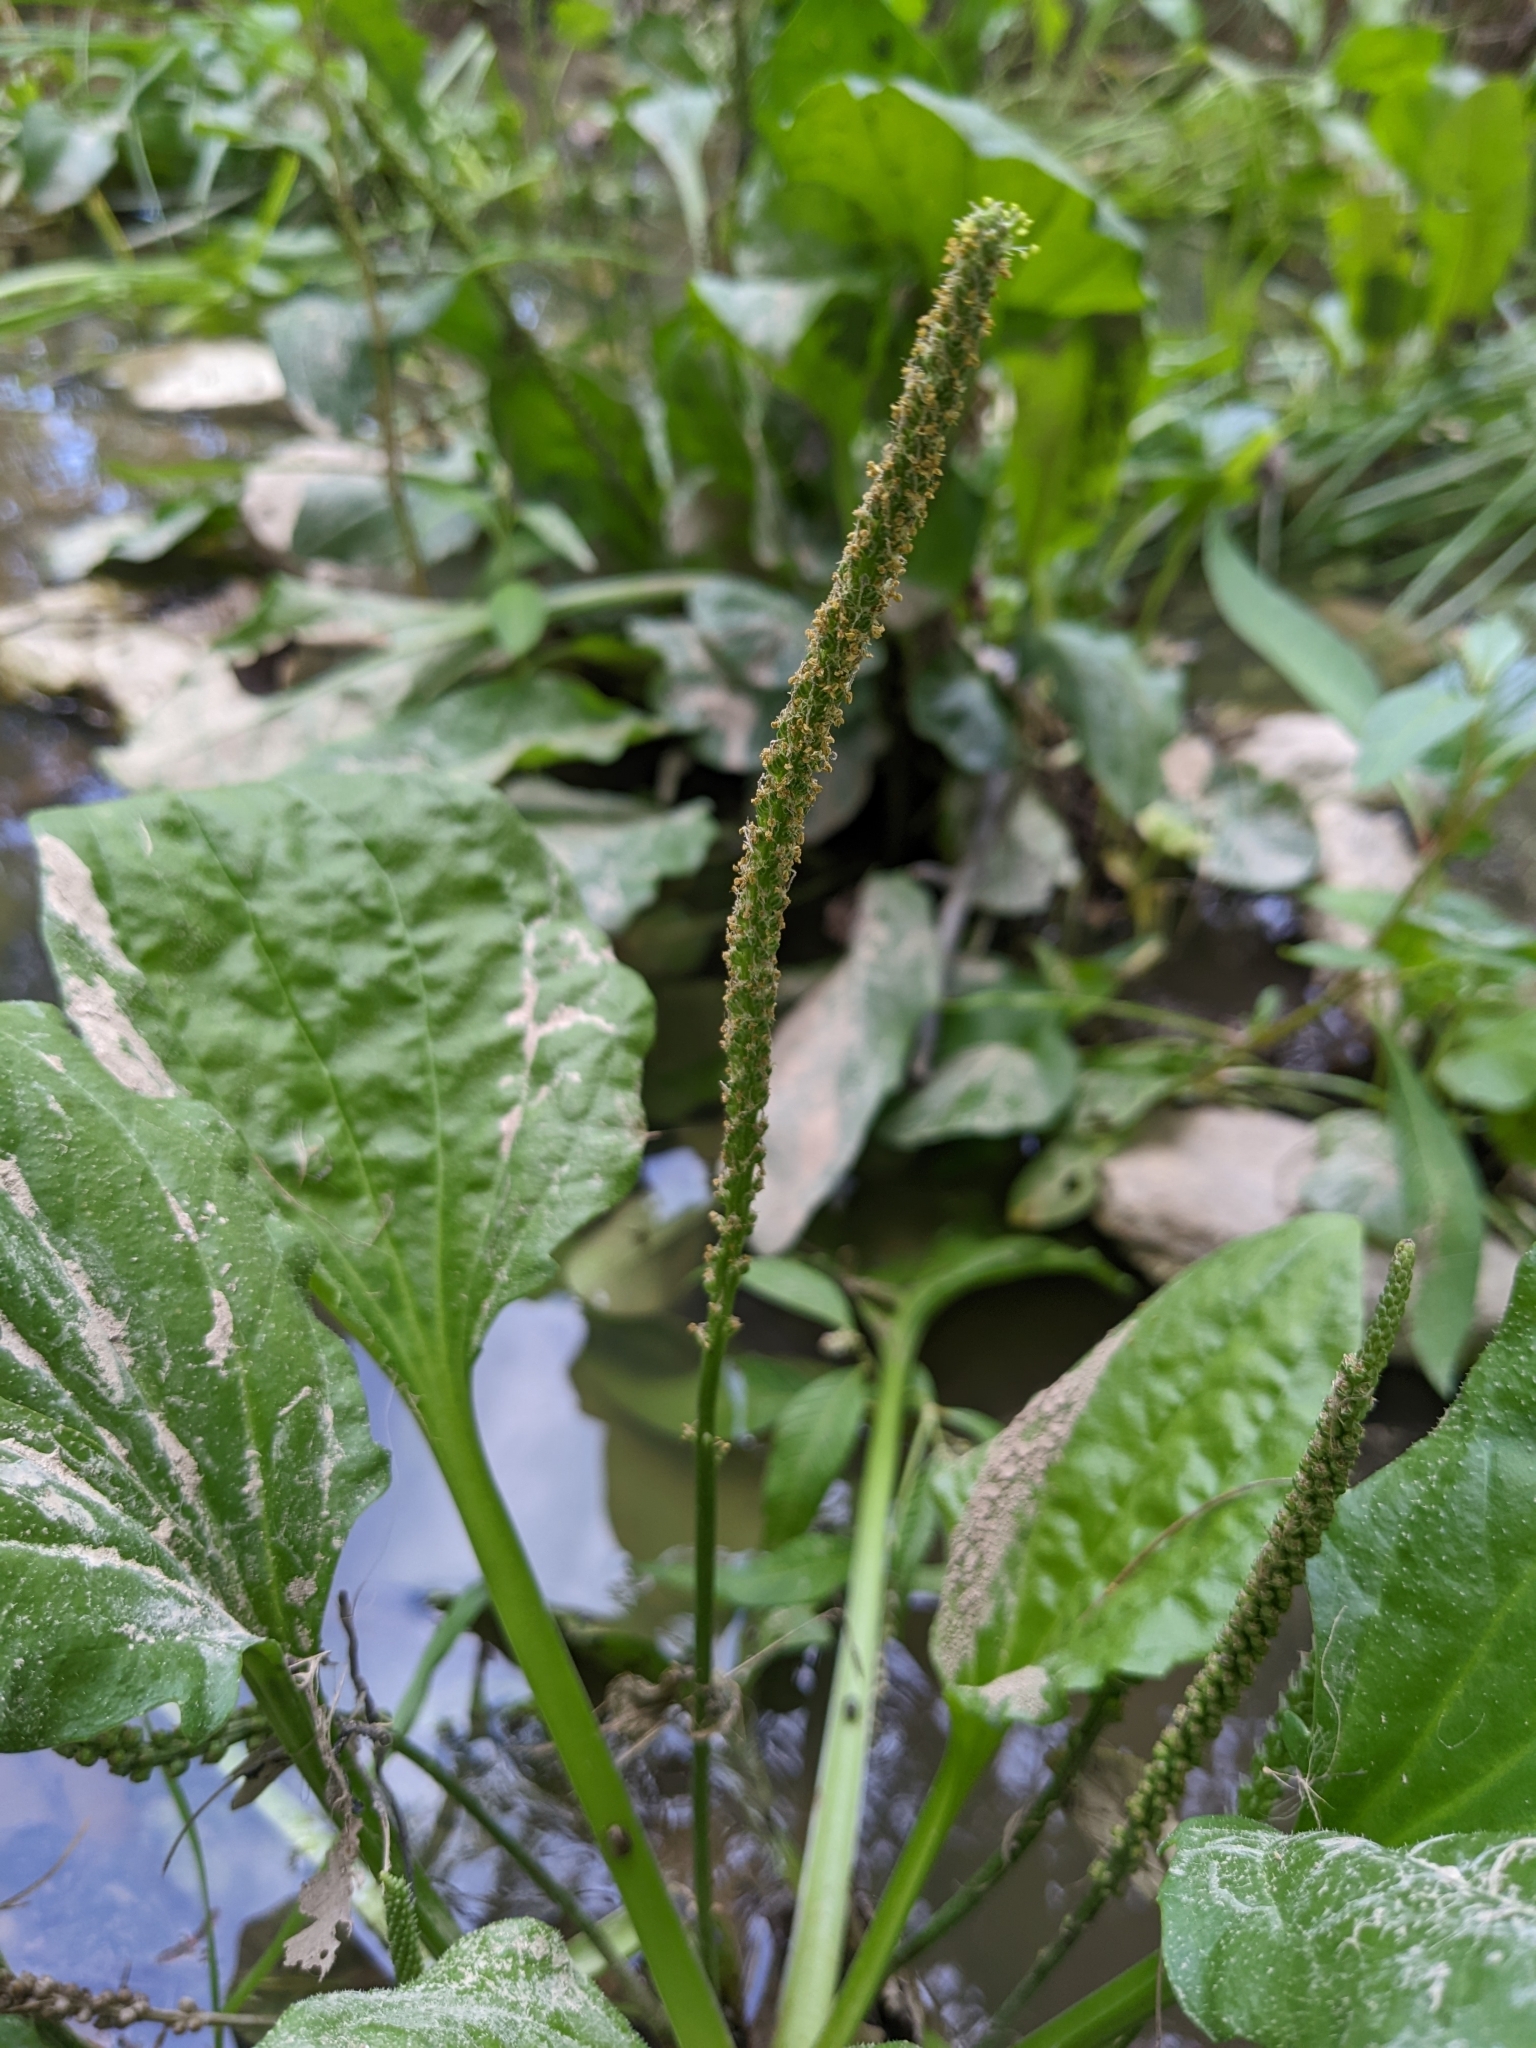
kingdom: Plantae
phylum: Tracheophyta
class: Magnoliopsida
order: Lamiales
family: Plantaginaceae
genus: Plantago
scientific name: Plantago major
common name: Common plantain
